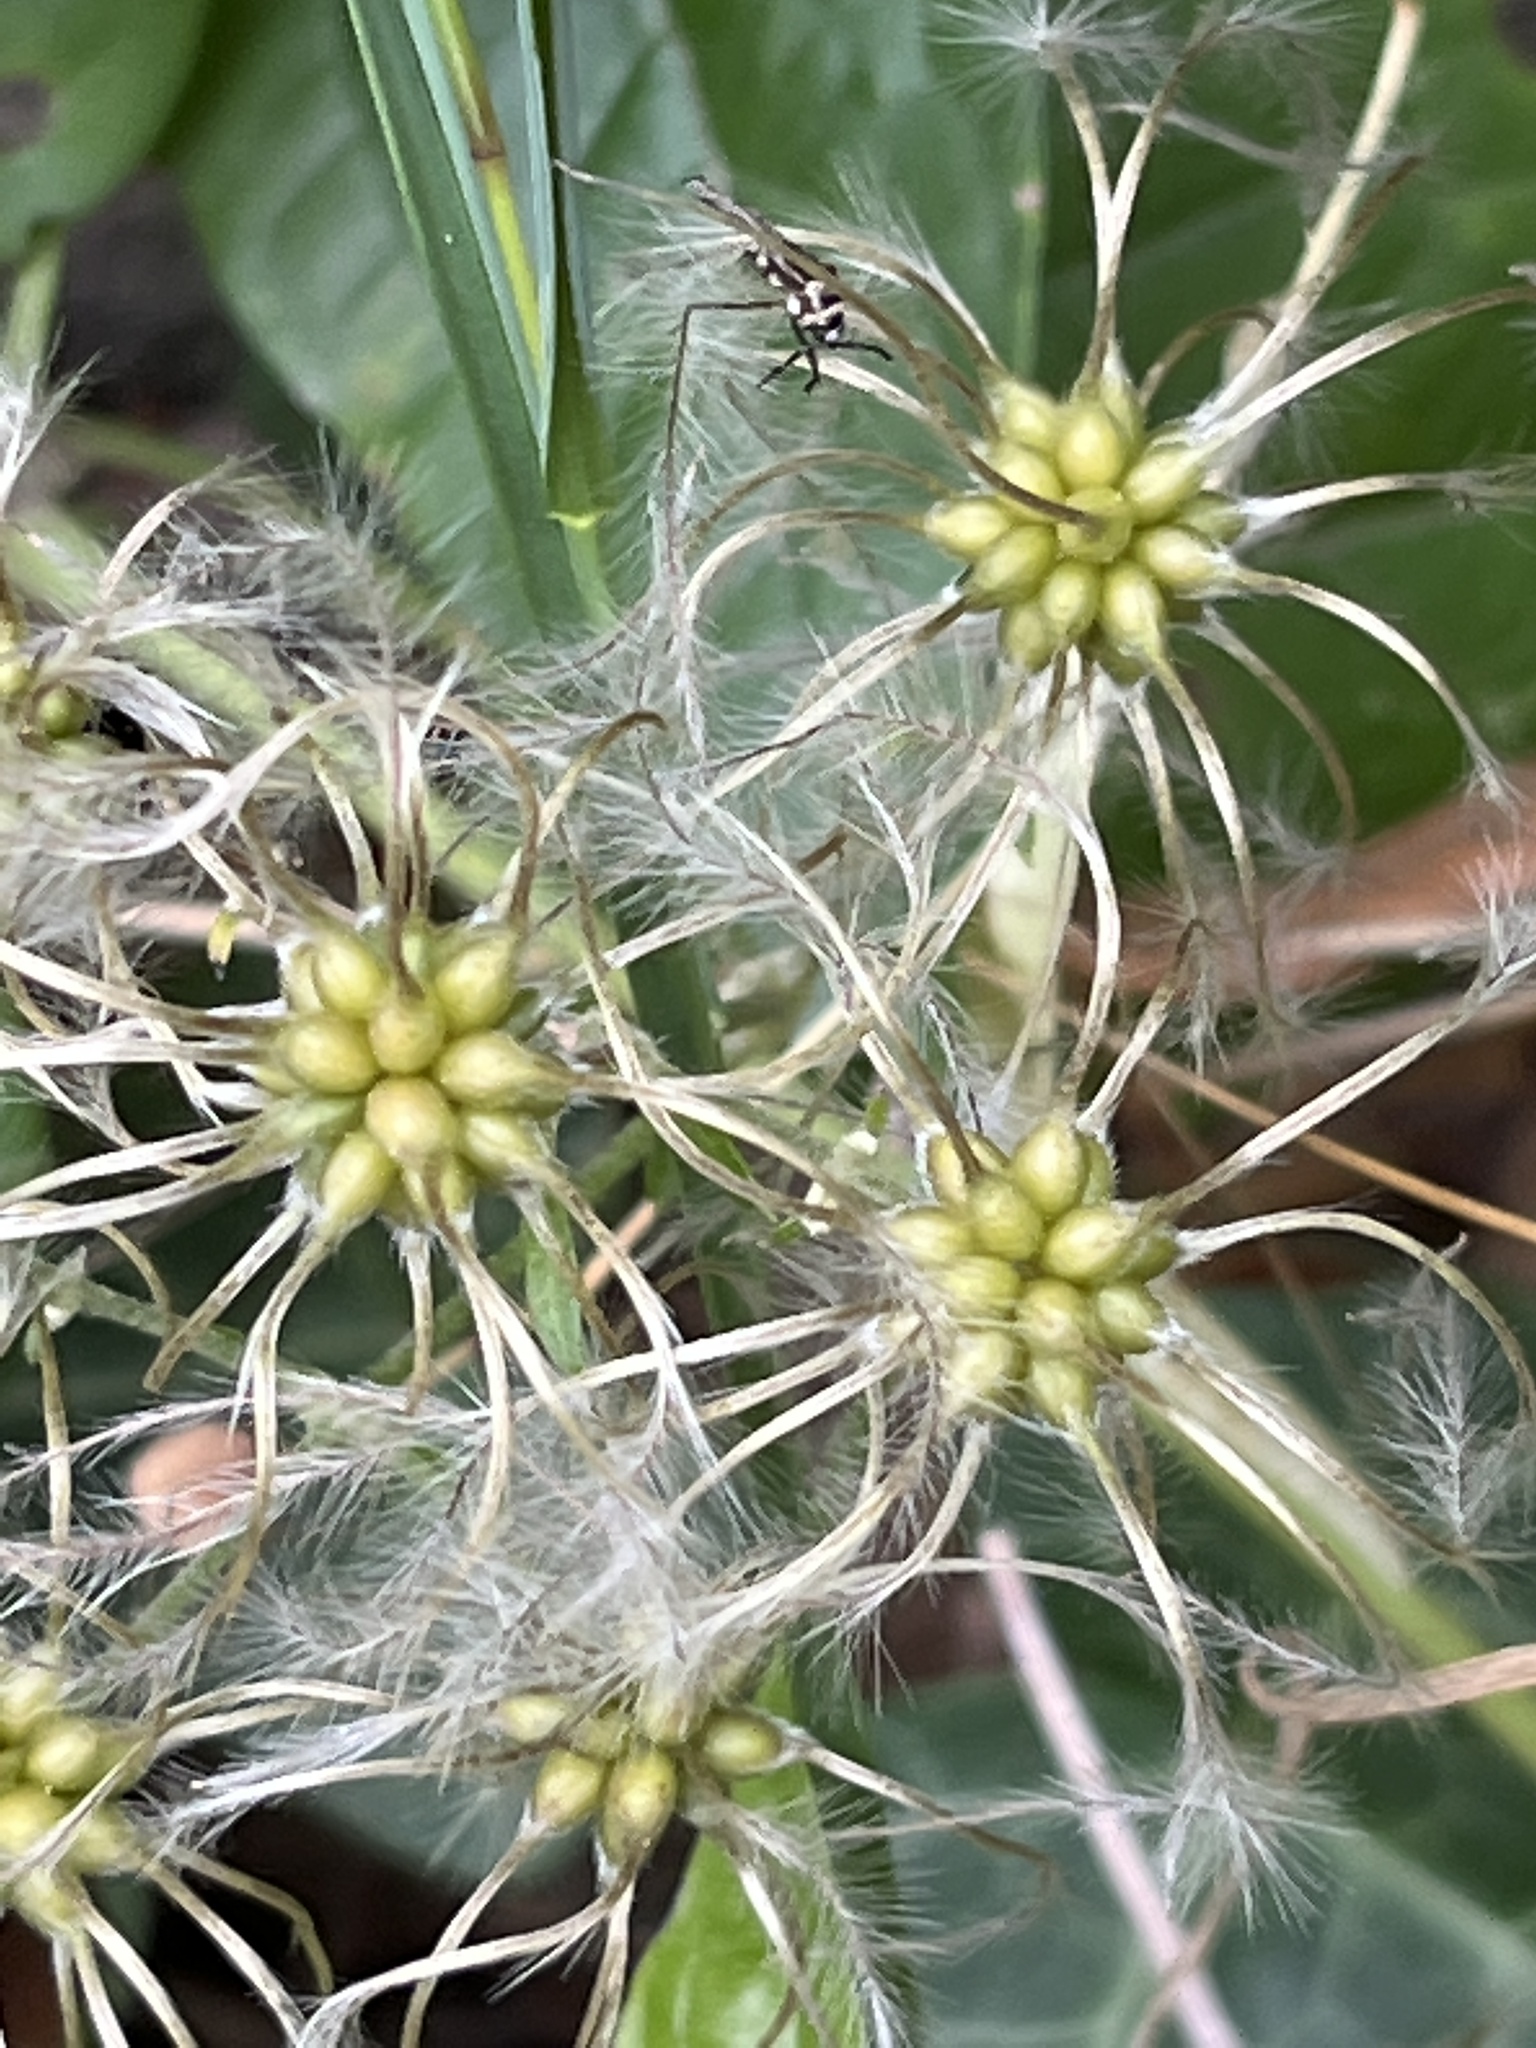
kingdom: Plantae
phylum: Tracheophyta
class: Magnoliopsida
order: Ranunculales
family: Ranunculaceae
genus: Clematis
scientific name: Clematis vitalba
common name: Evergreen clematis
